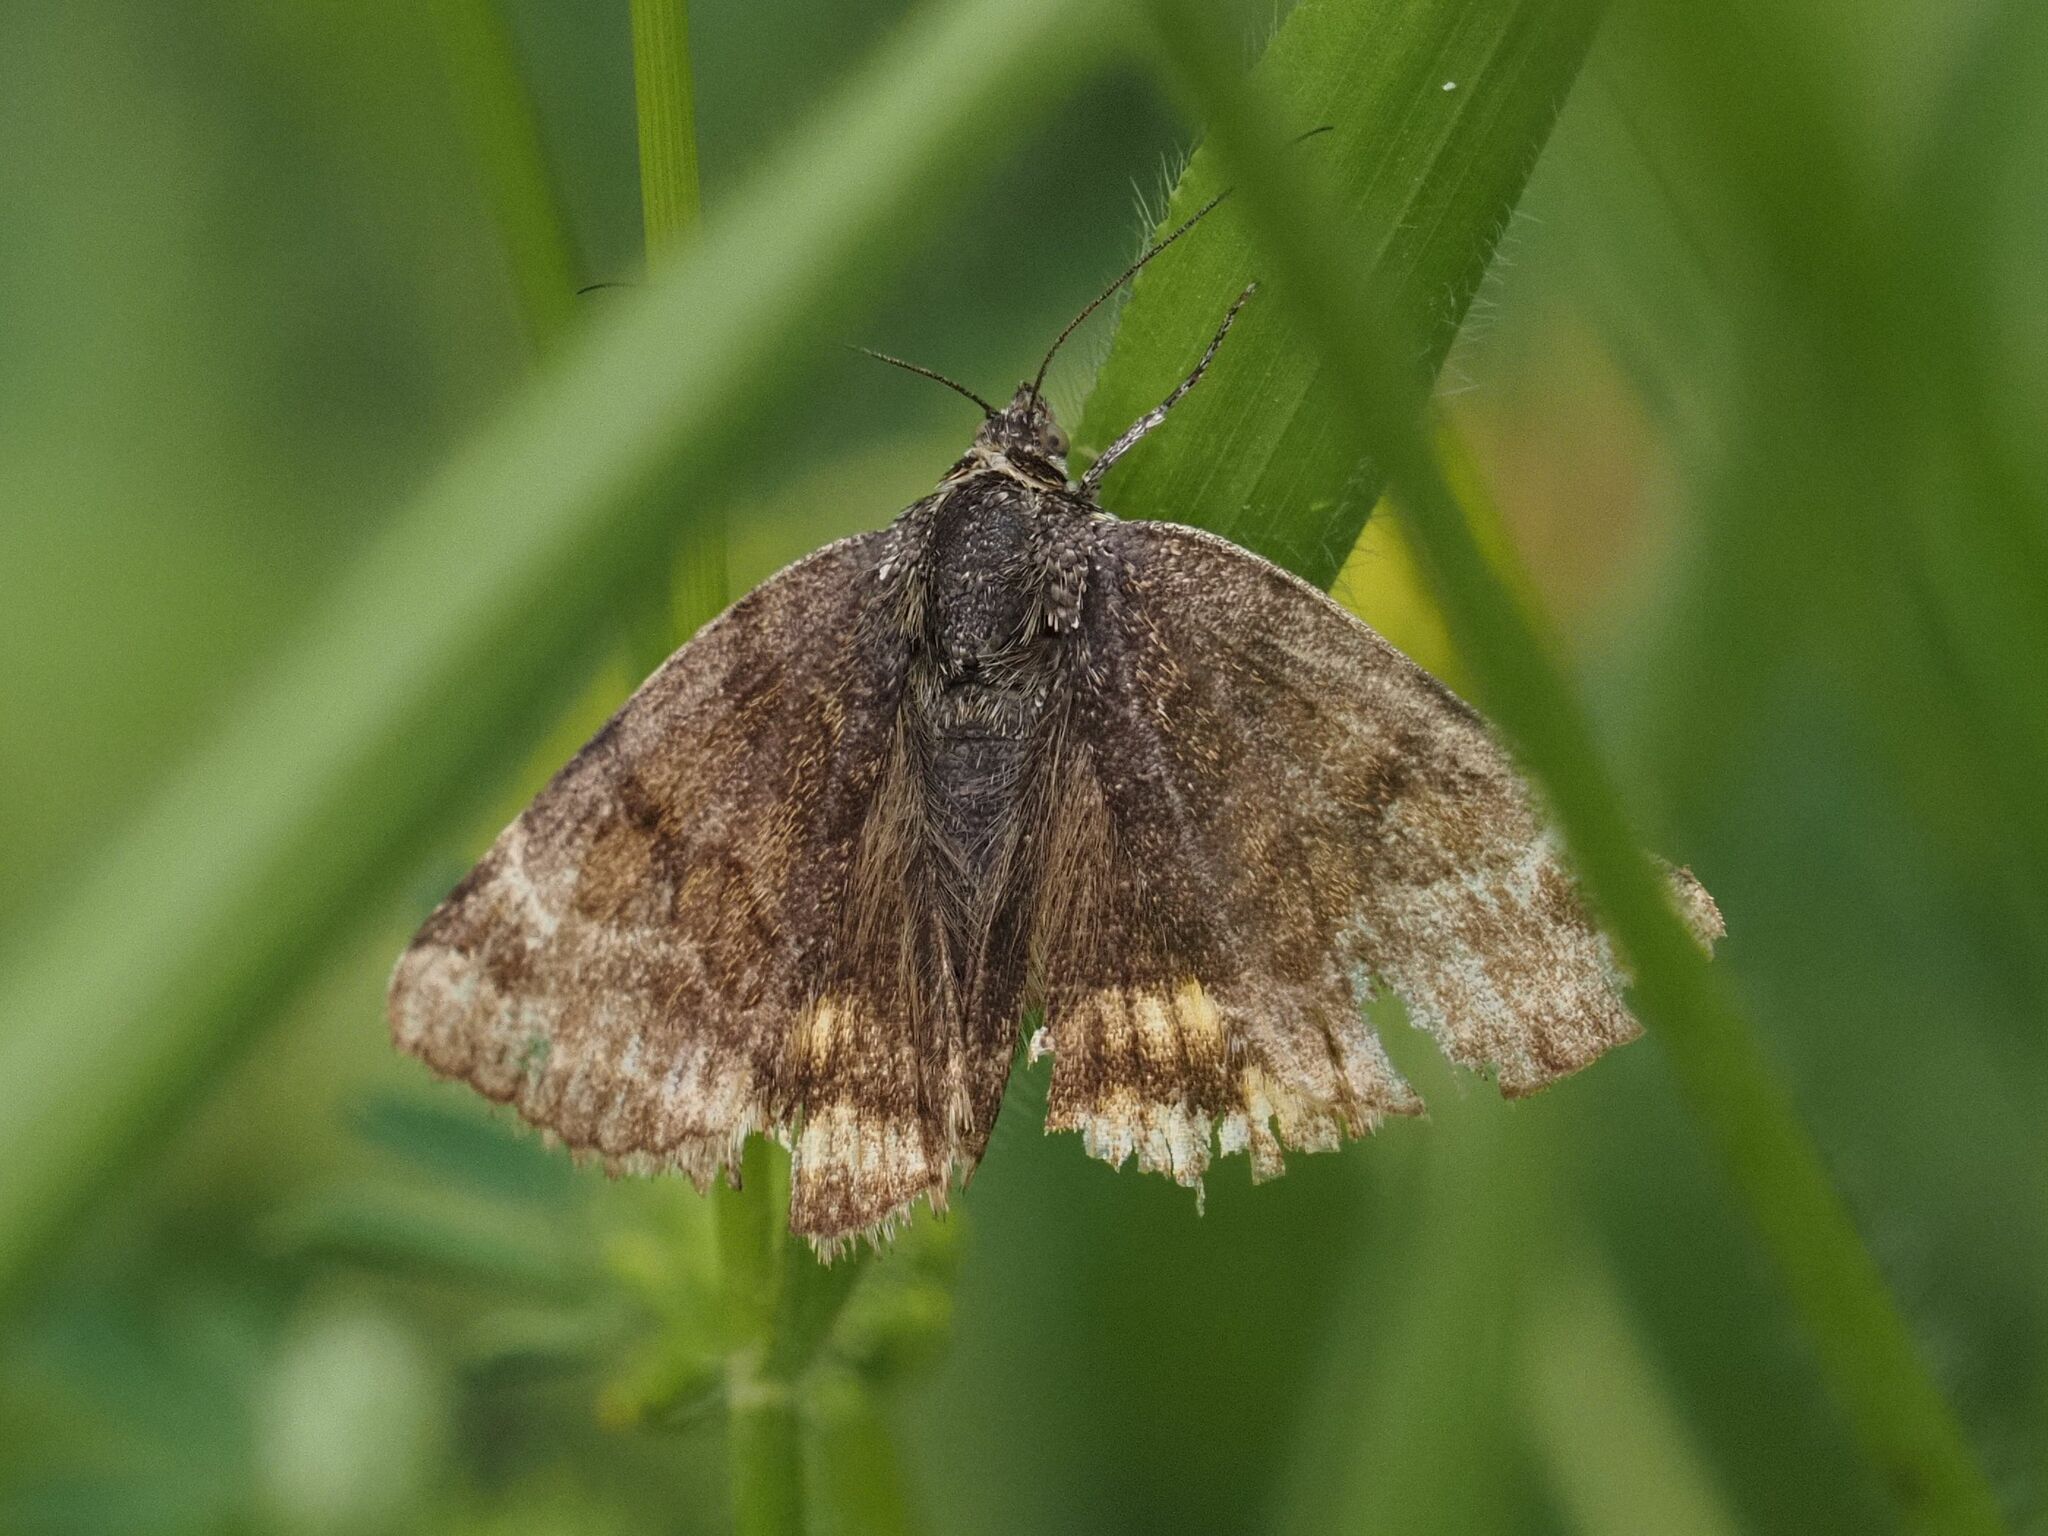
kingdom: Animalia
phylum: Arthropoda
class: Insecta
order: Lepidoptera
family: Erebidae
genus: Euclidia
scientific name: Euclidia glyphica
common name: Burnet companion
